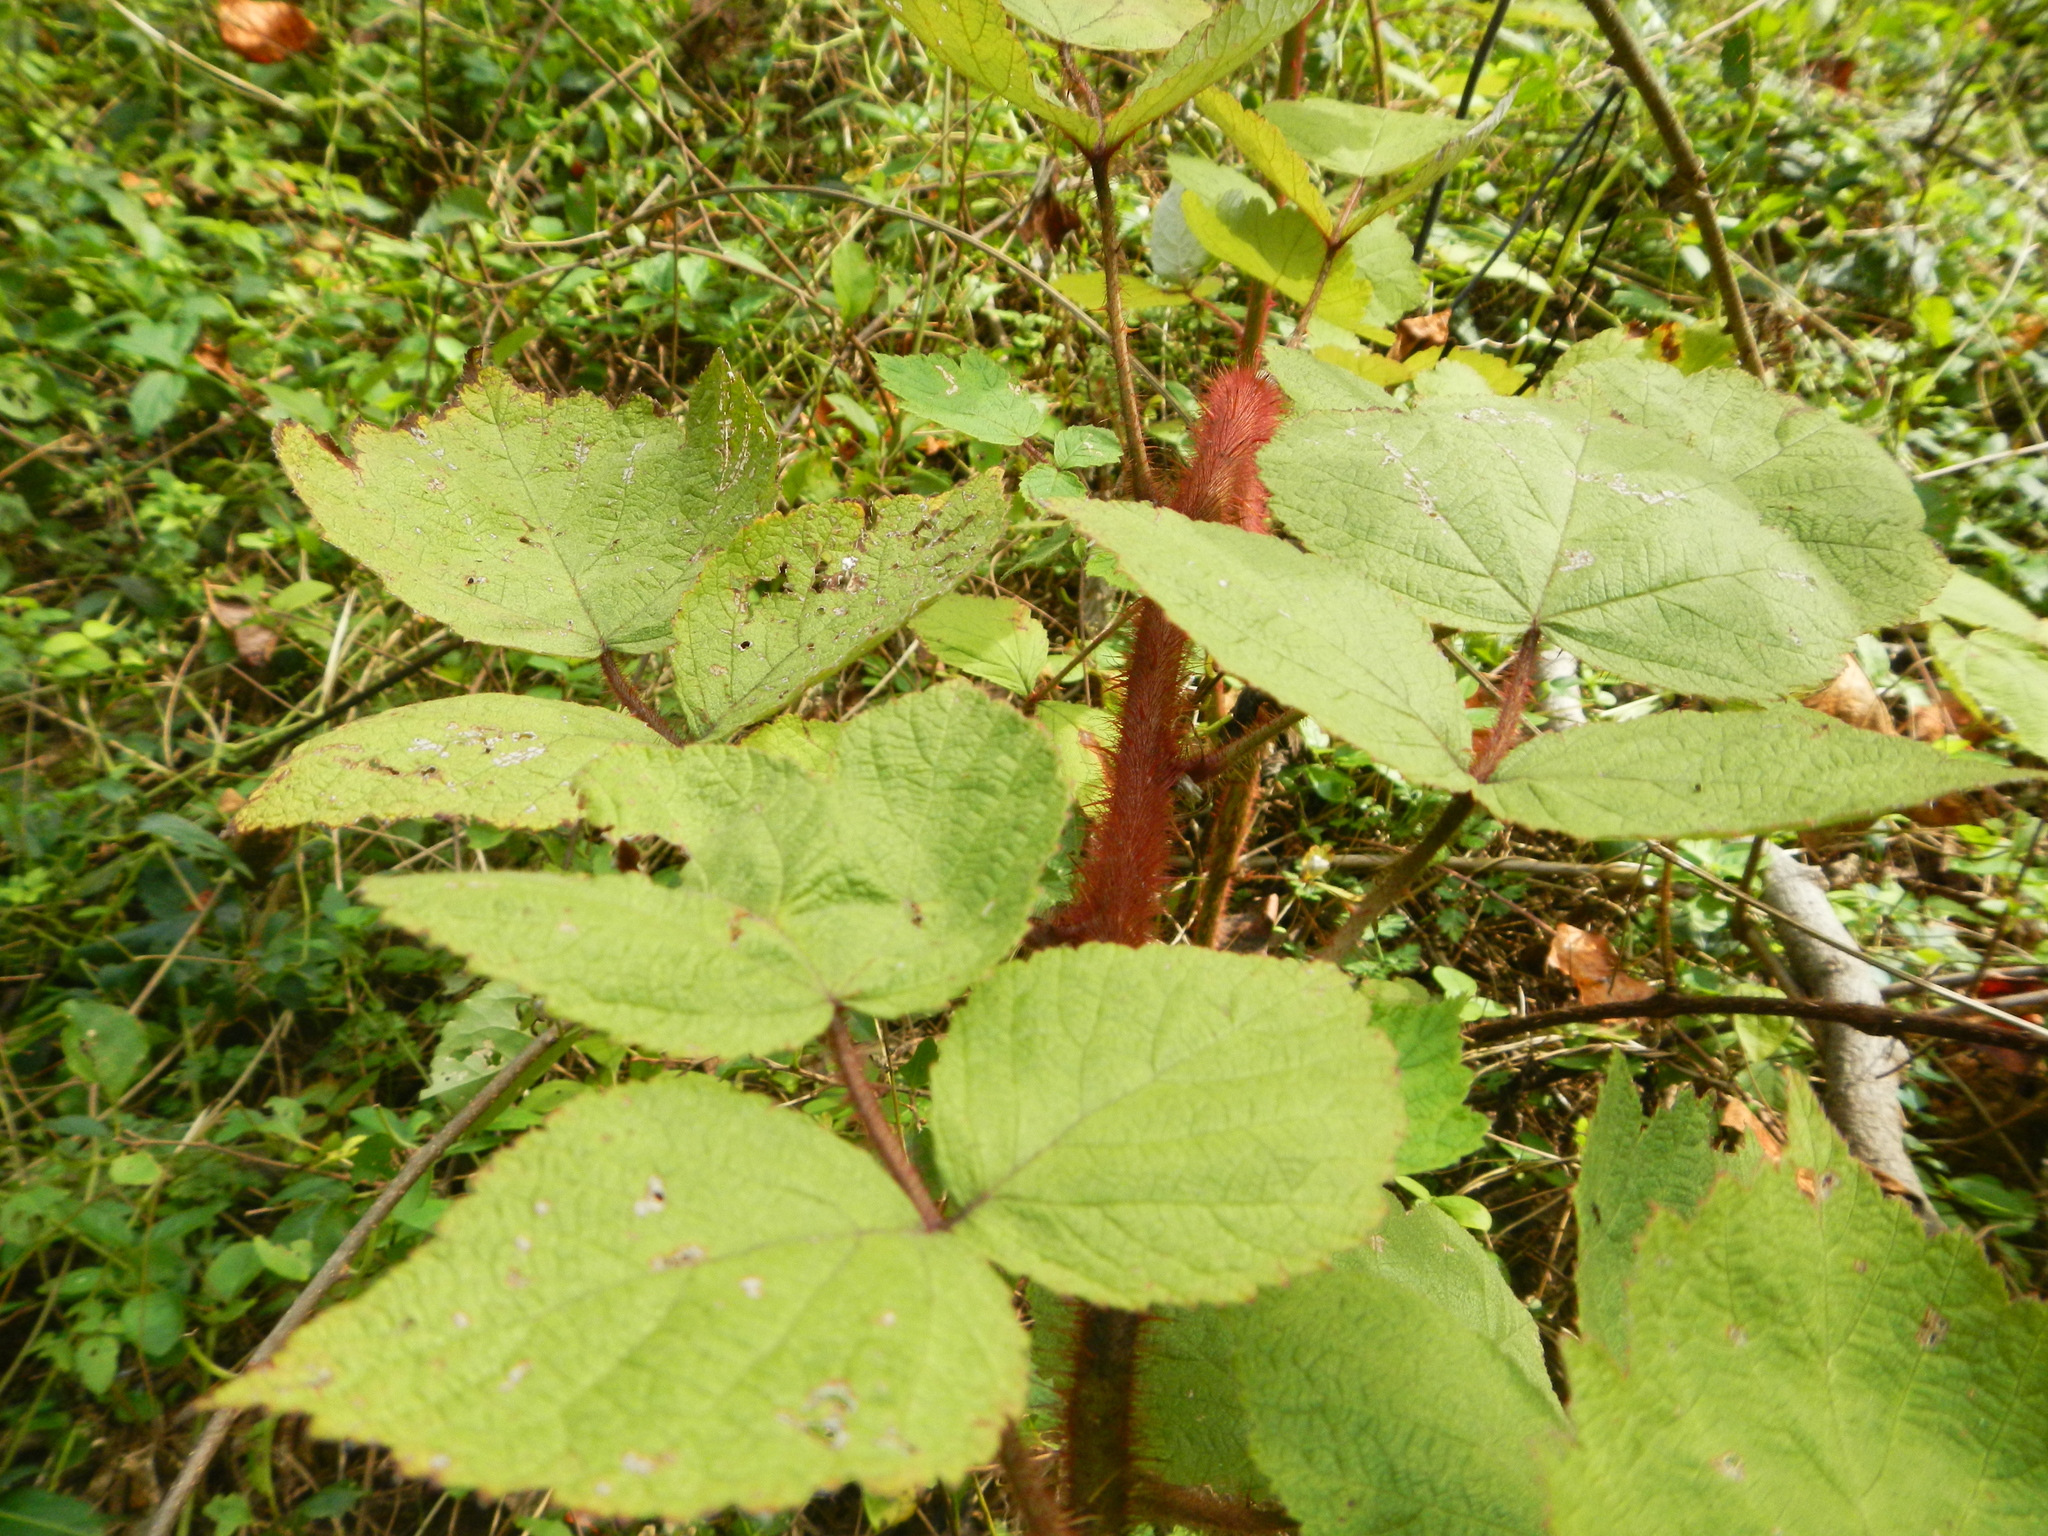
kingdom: Plantae
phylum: Tracheophyta
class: Magnoliopsida
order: Rosales
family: Rosaceae
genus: Rubus
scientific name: Rubus phoenicolasius
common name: Japanese wineberry
